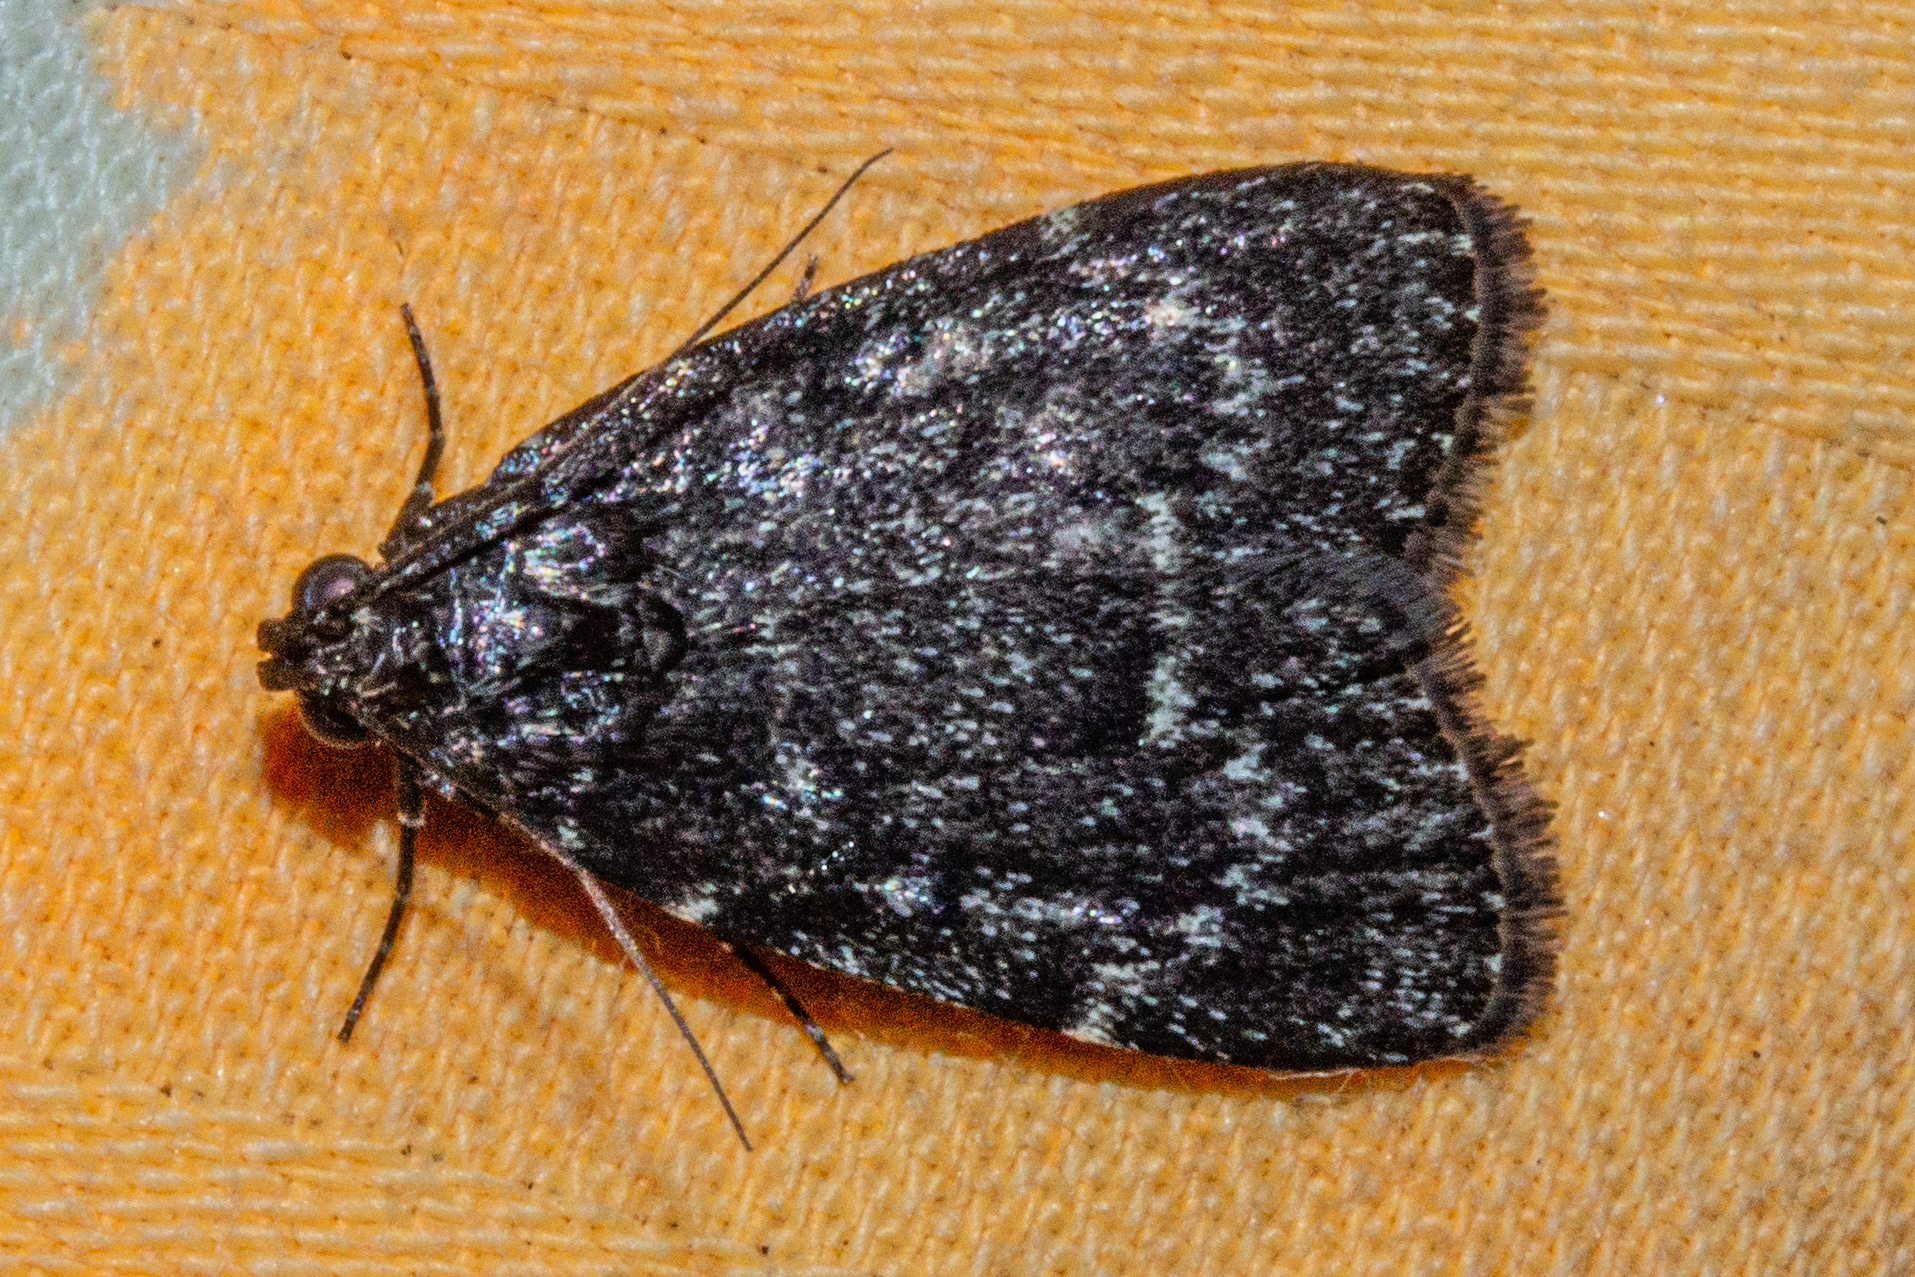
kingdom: Animalia
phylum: Arthropoda
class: Insecta
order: Lepidoptera
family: Pyralidae
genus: Stericta
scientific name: Stericta carbonalis
